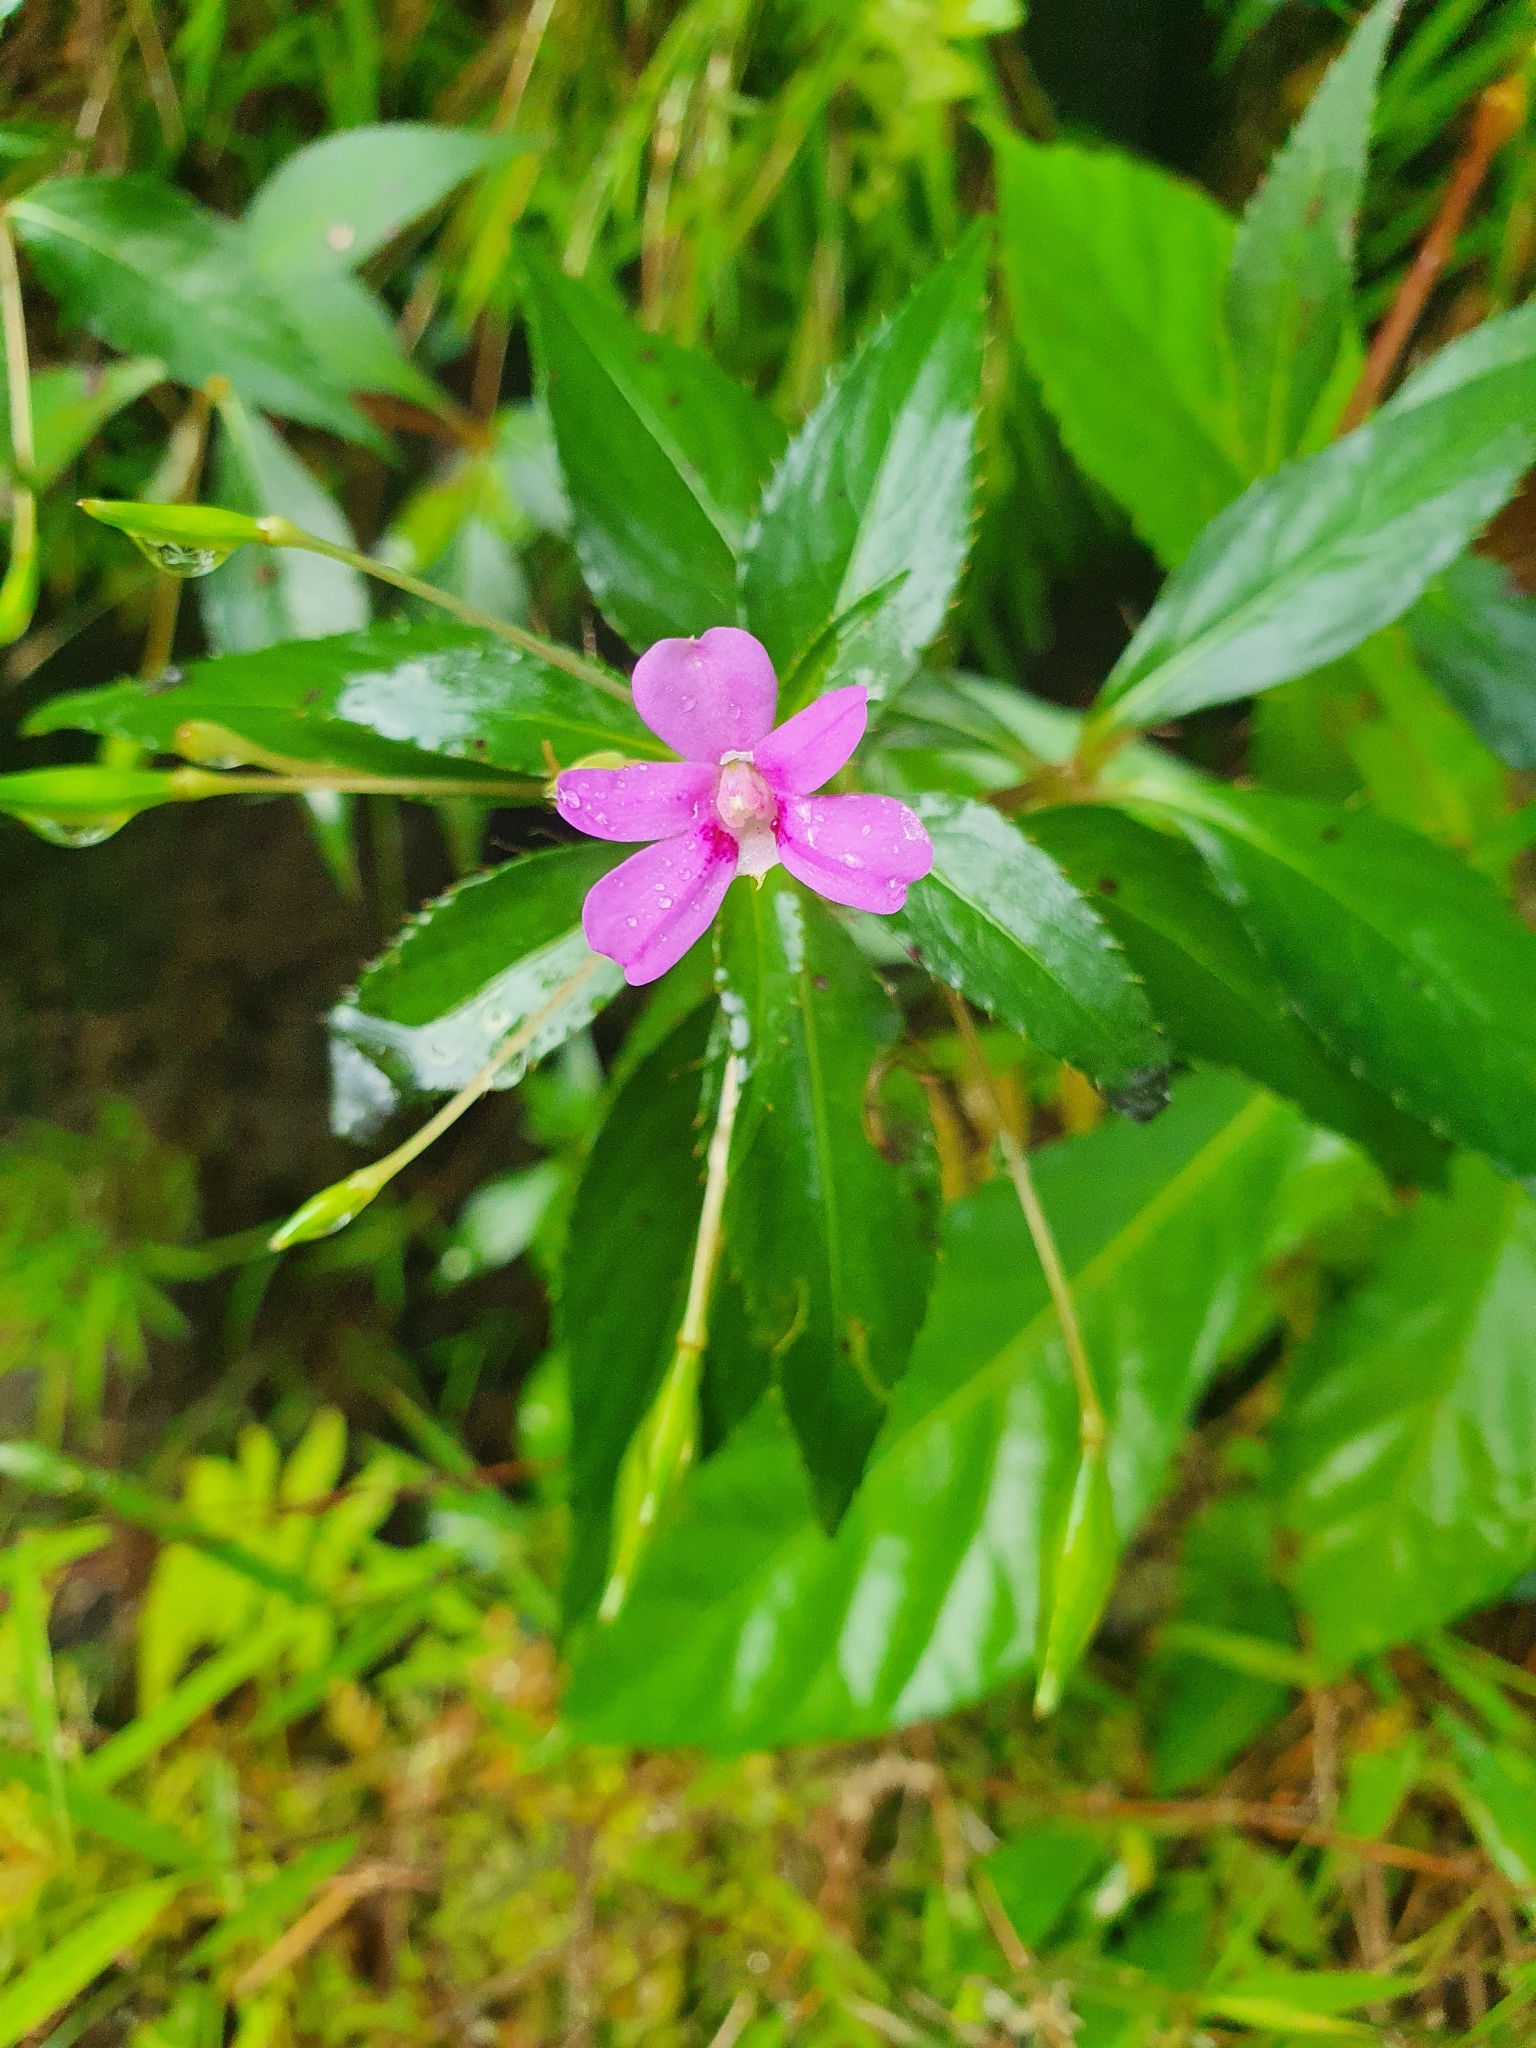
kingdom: Plantae
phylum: Tracheophyta
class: Magnoliopsida
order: Ericales
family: Balsaminaceae
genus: Impatiens
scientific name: Impatiens platypetala
